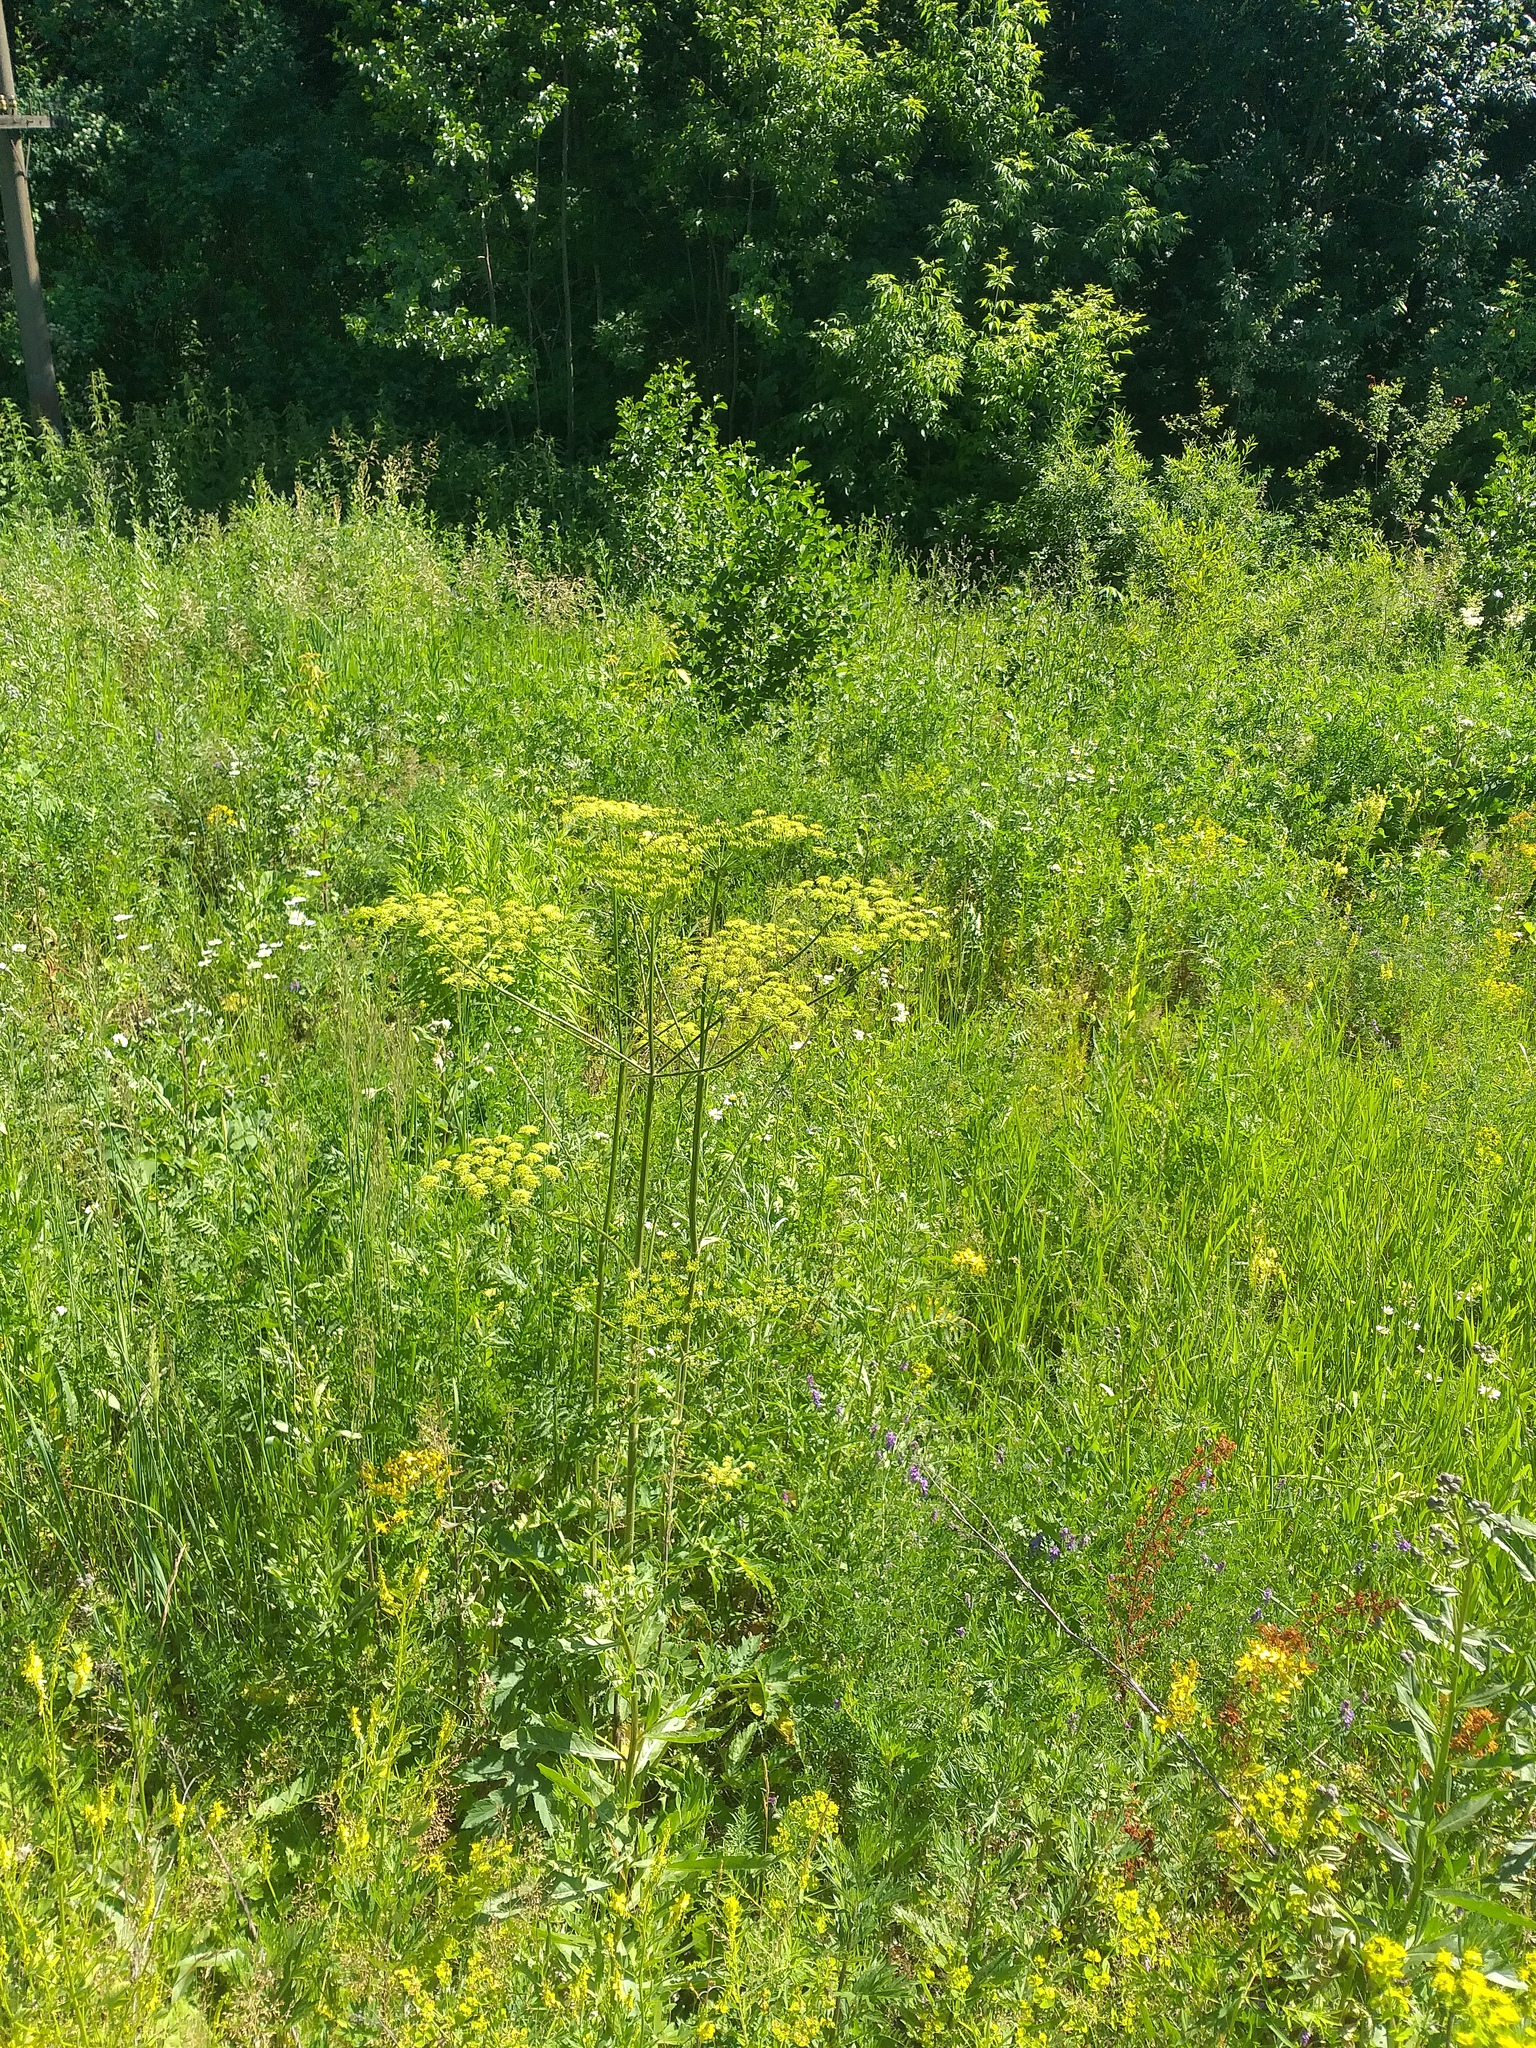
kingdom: Plantae
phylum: Tracheophyta
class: Magnoliopsida
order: Apiales
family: Apiaceae
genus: Heracleum
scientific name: Heracleum sphondylium
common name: Hogweed
